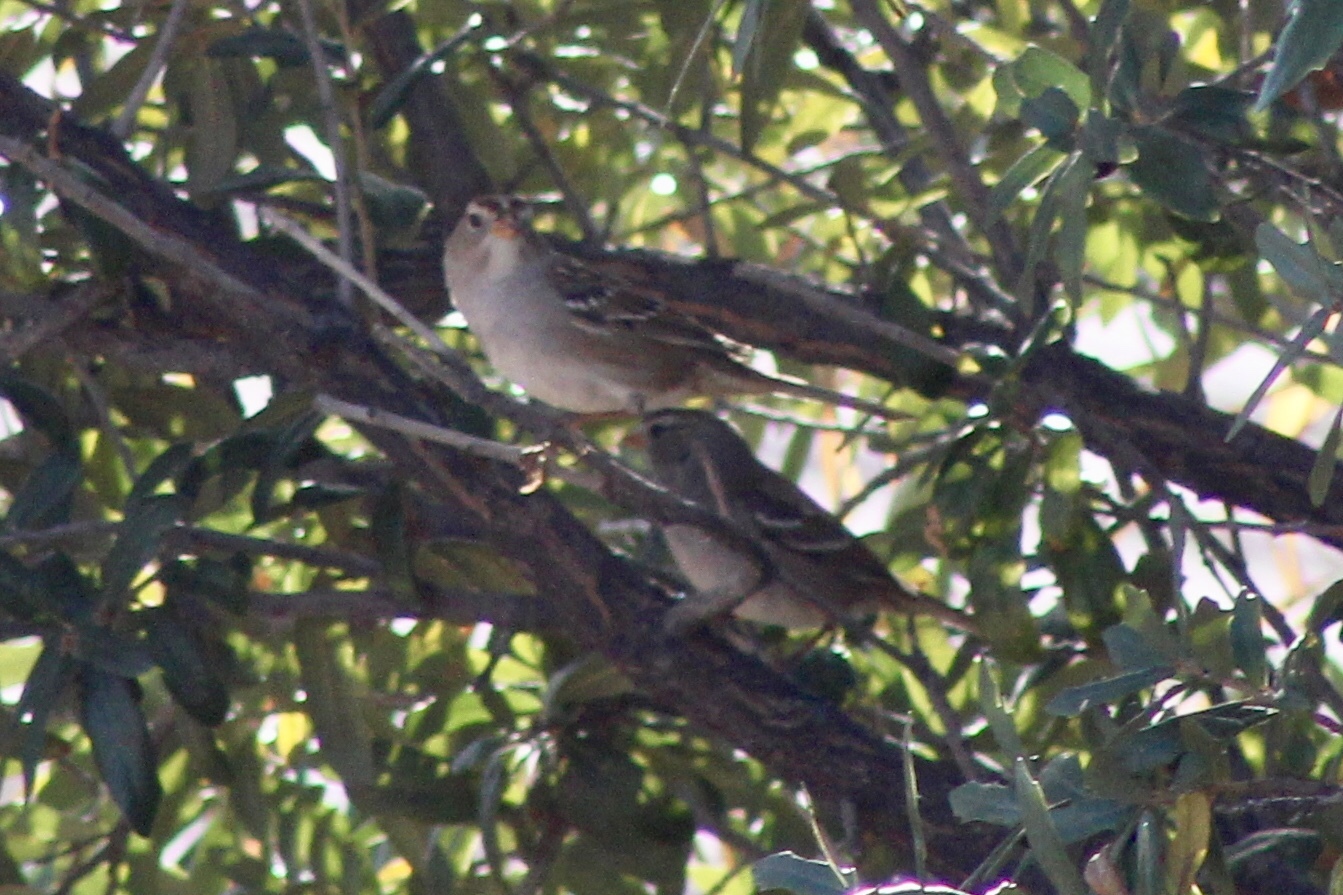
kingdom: Animalia
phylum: Chordata
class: Aves
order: Passeriformes
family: Passerellidae
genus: Zonotrichia
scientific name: Zonotrichia leucophrys
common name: White-crowned sparrow
